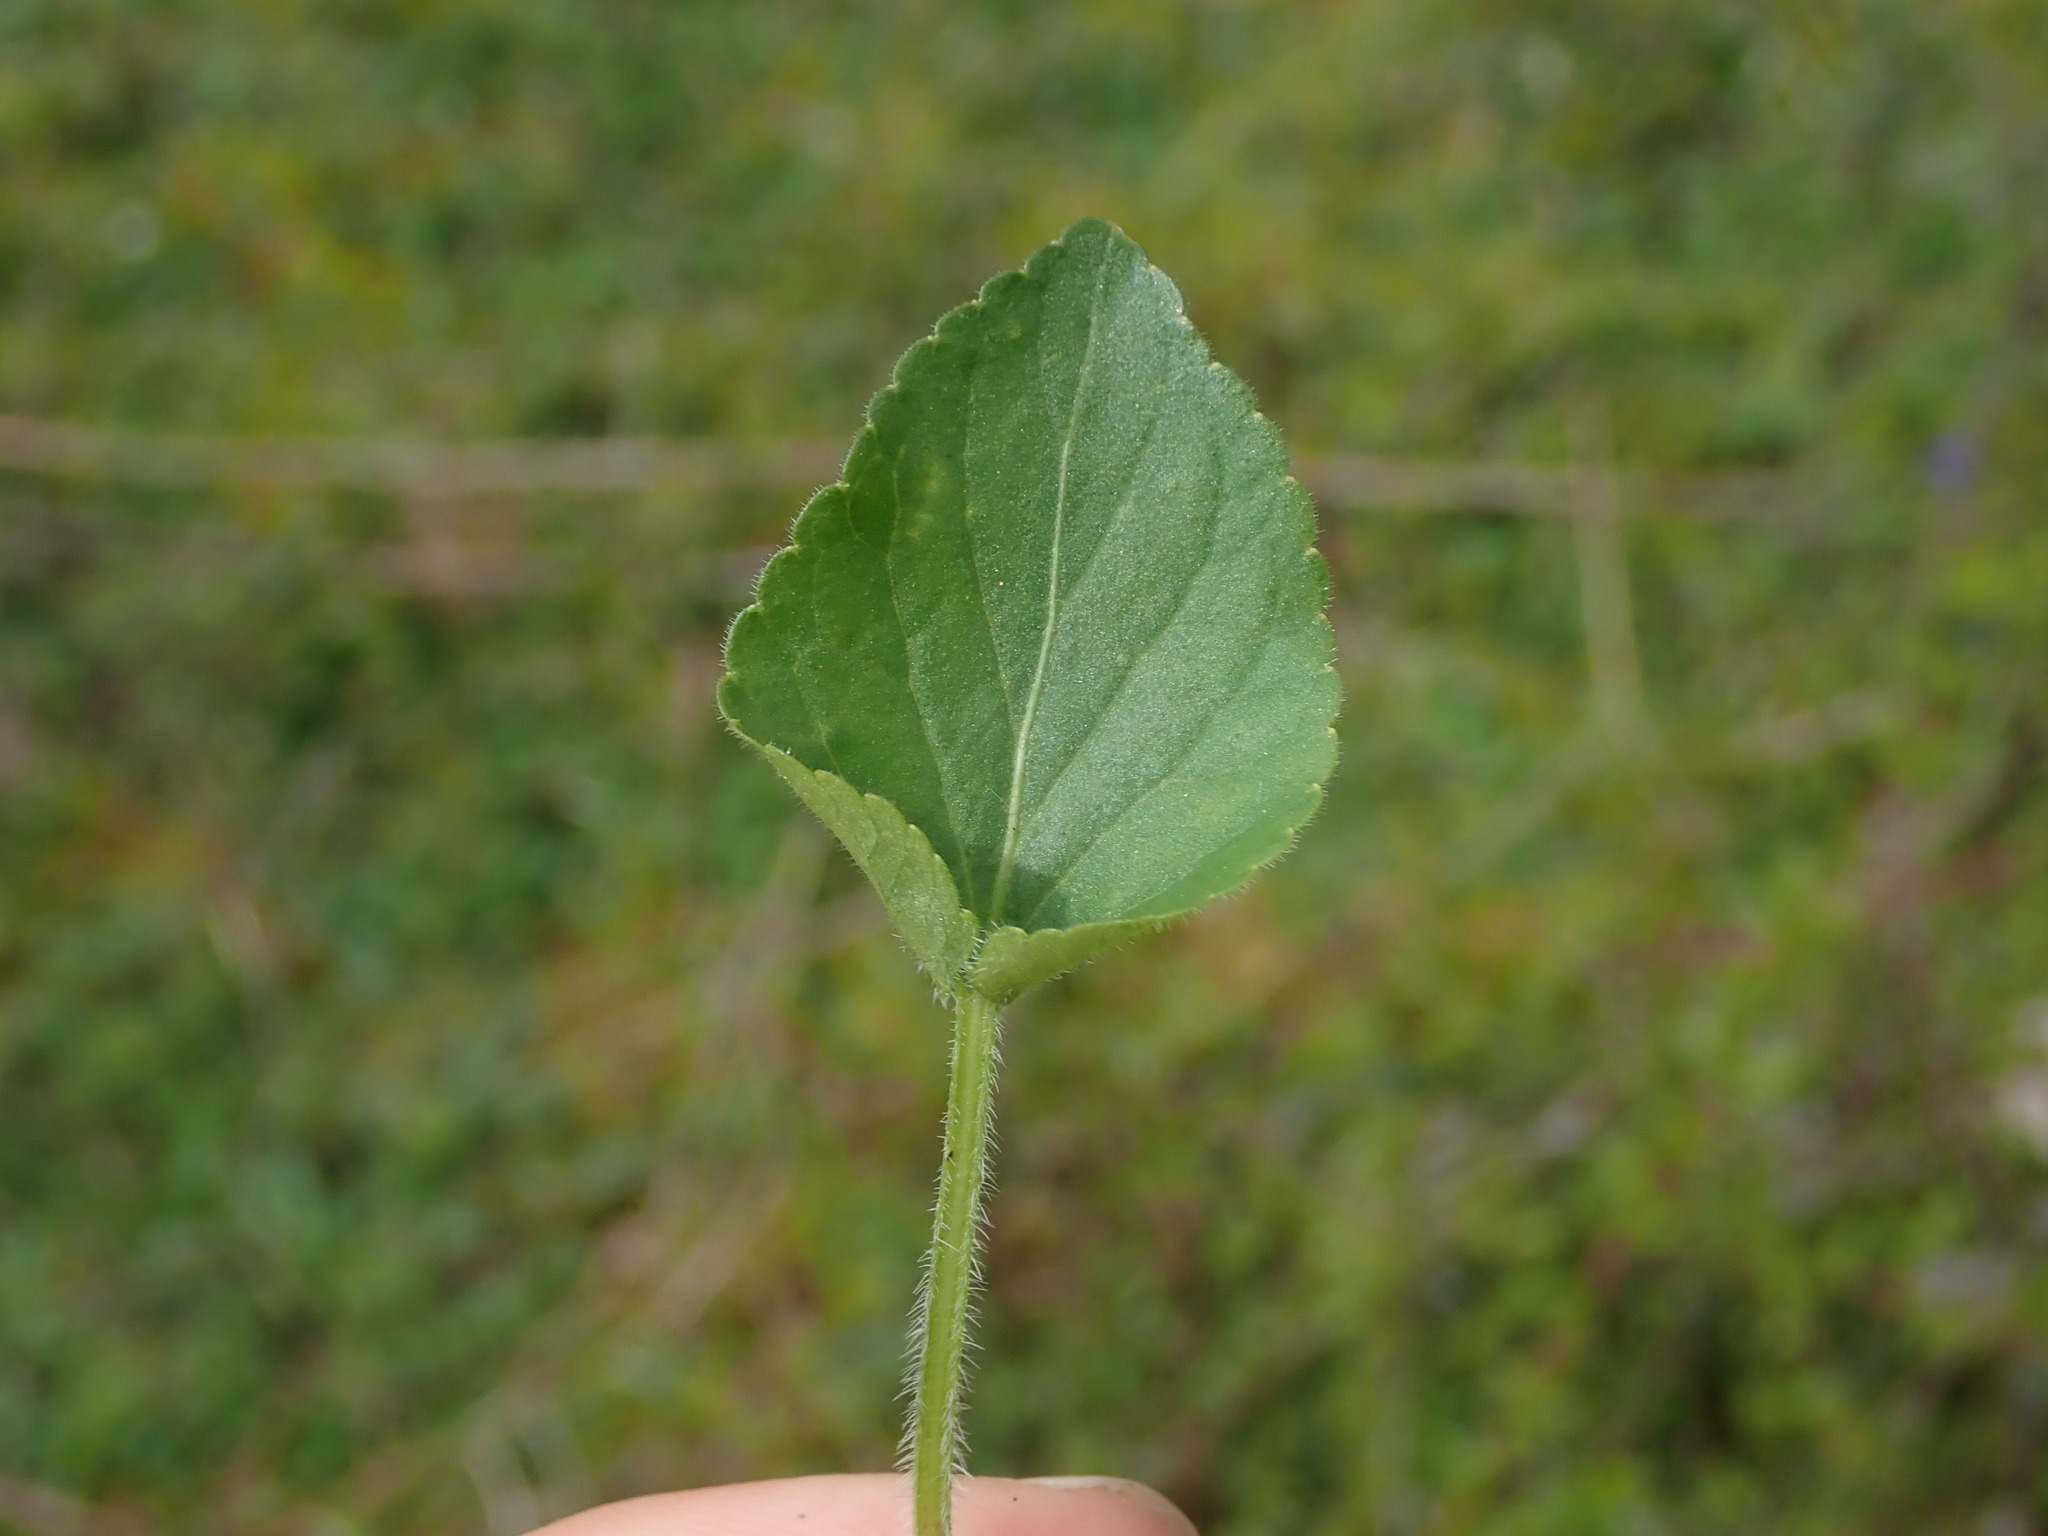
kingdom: Plantae
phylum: Tracheophyta
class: Magnoliopsida
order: Malpighiales
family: Violaceae
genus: Viola
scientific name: Viola hirta
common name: Hairy violet
